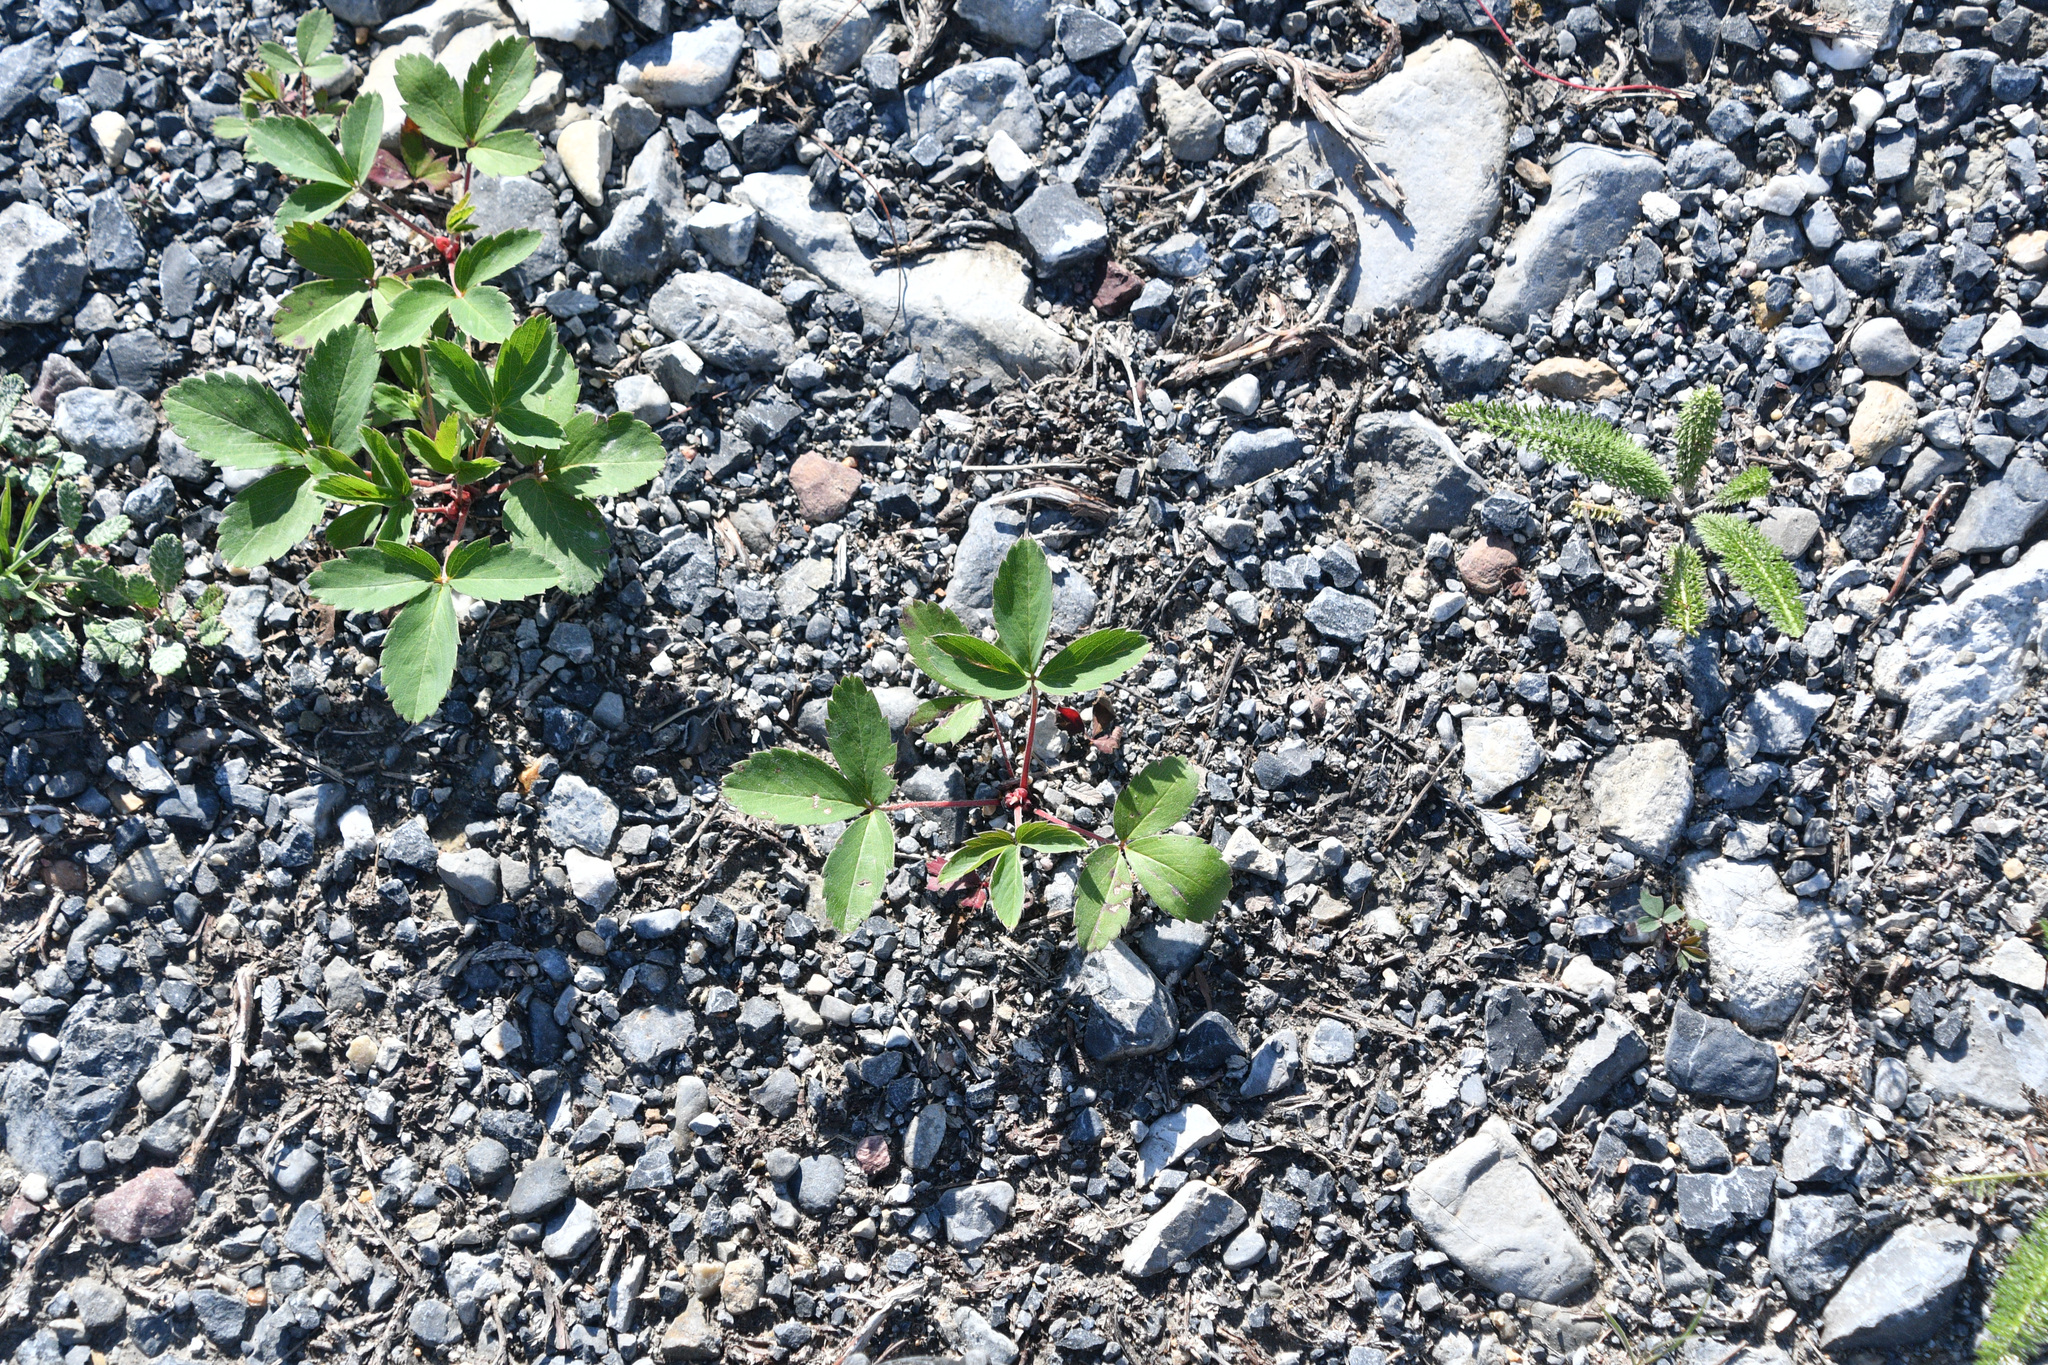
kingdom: Plantae
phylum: Tracheophyta
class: Magnoliopsida
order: Rosales
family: Rosaceae
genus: Fragaria
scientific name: Fragaria virginiana
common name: Thickleaved wild strawberry
